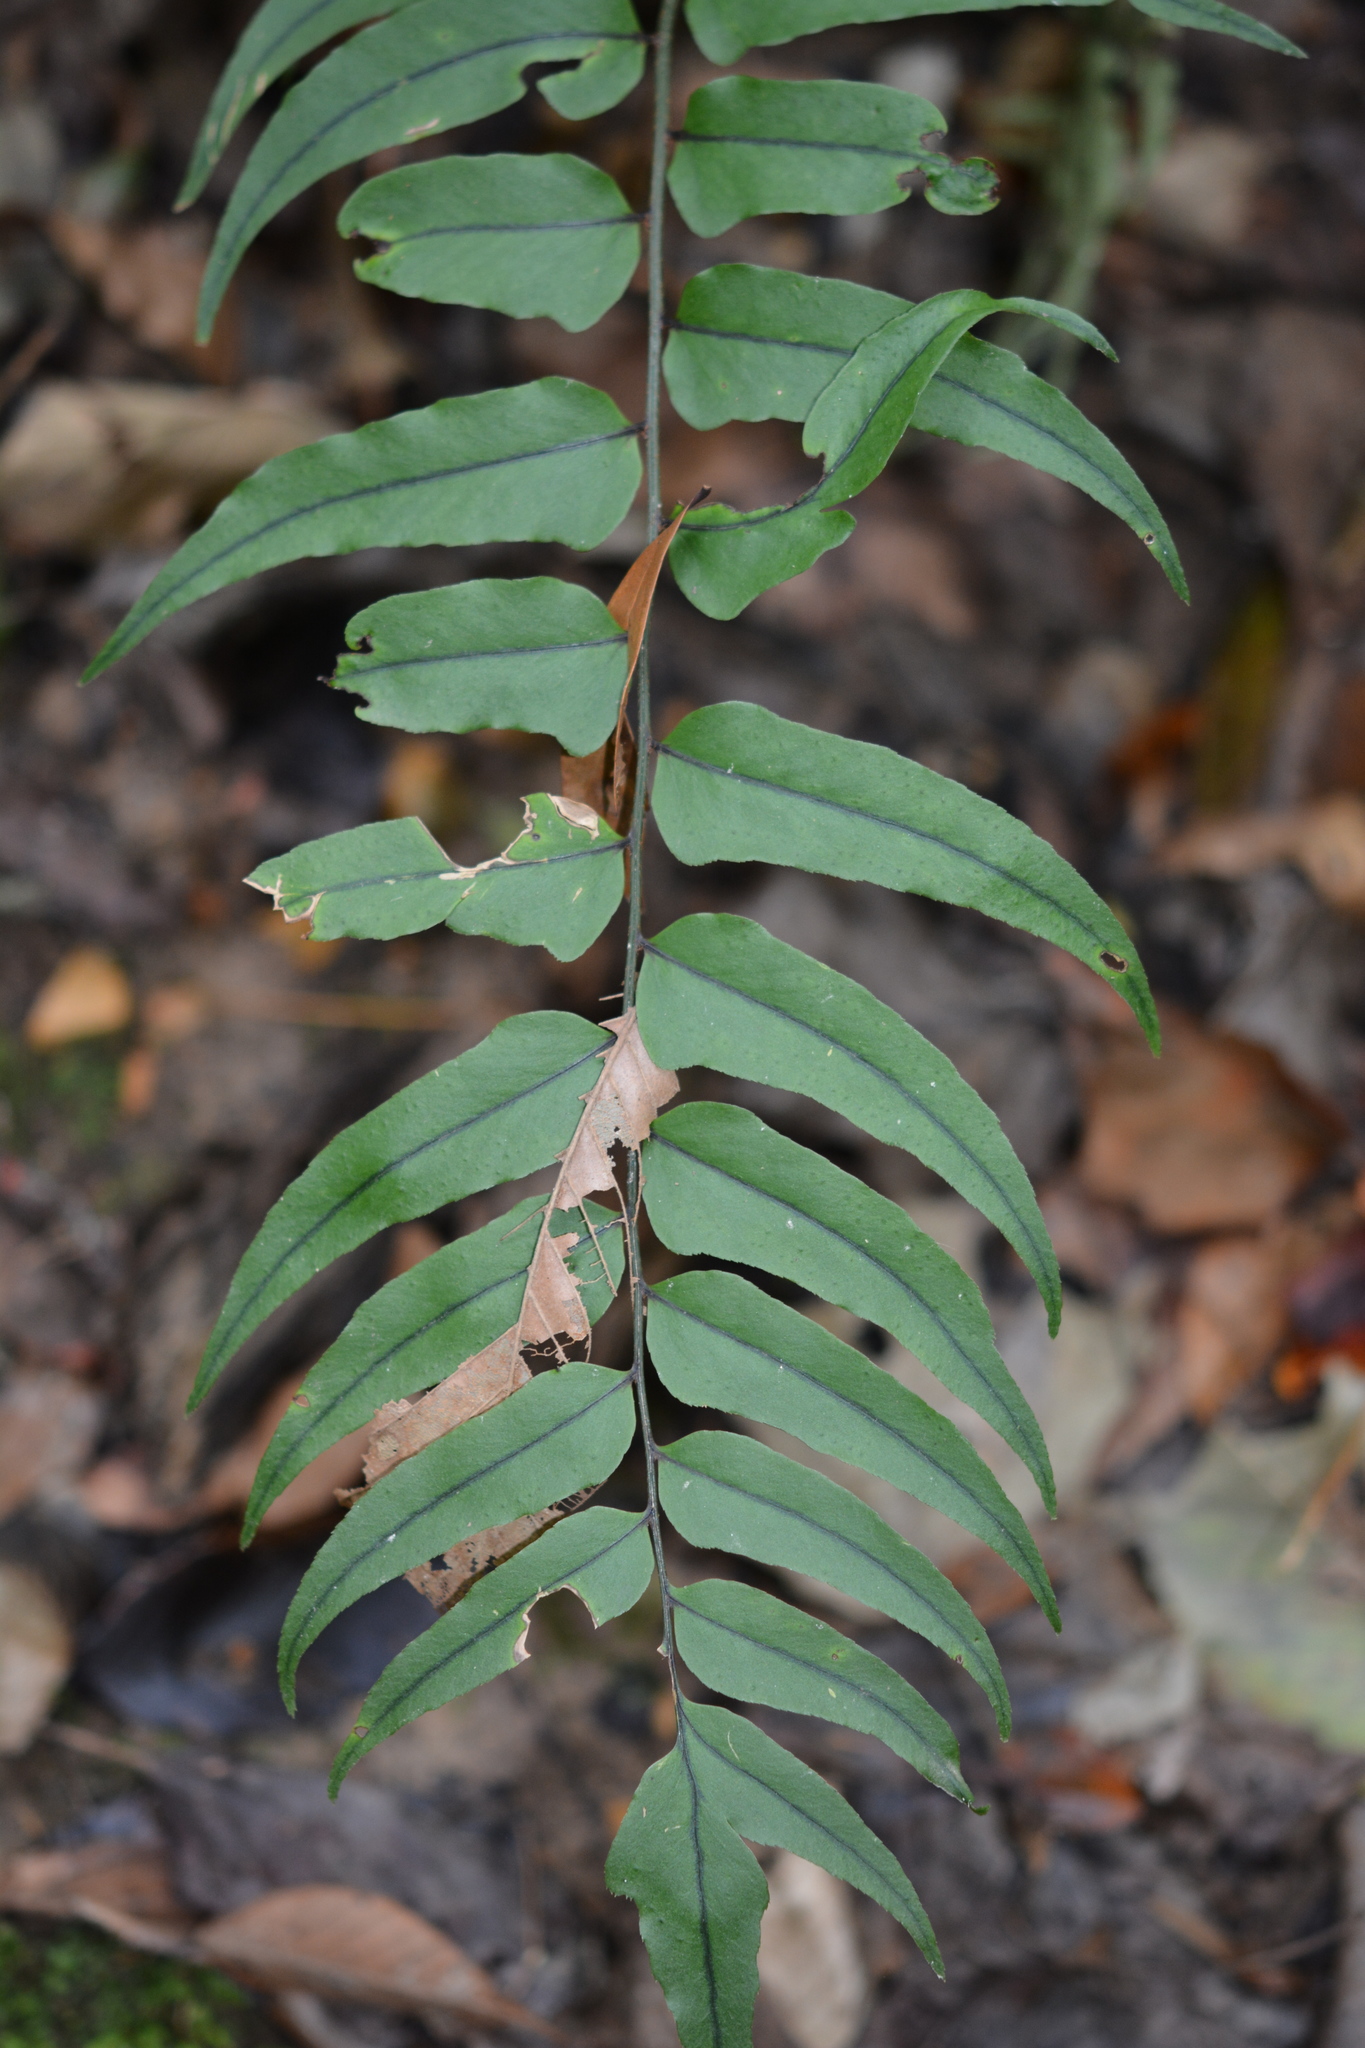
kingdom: Plantae
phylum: Tracheophyta
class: Polypodiopsida
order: Polypodiales
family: Dryopteridaceae
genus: Cyrtomium
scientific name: Cyrtomium fortunei
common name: Asian netvein hollyfern
